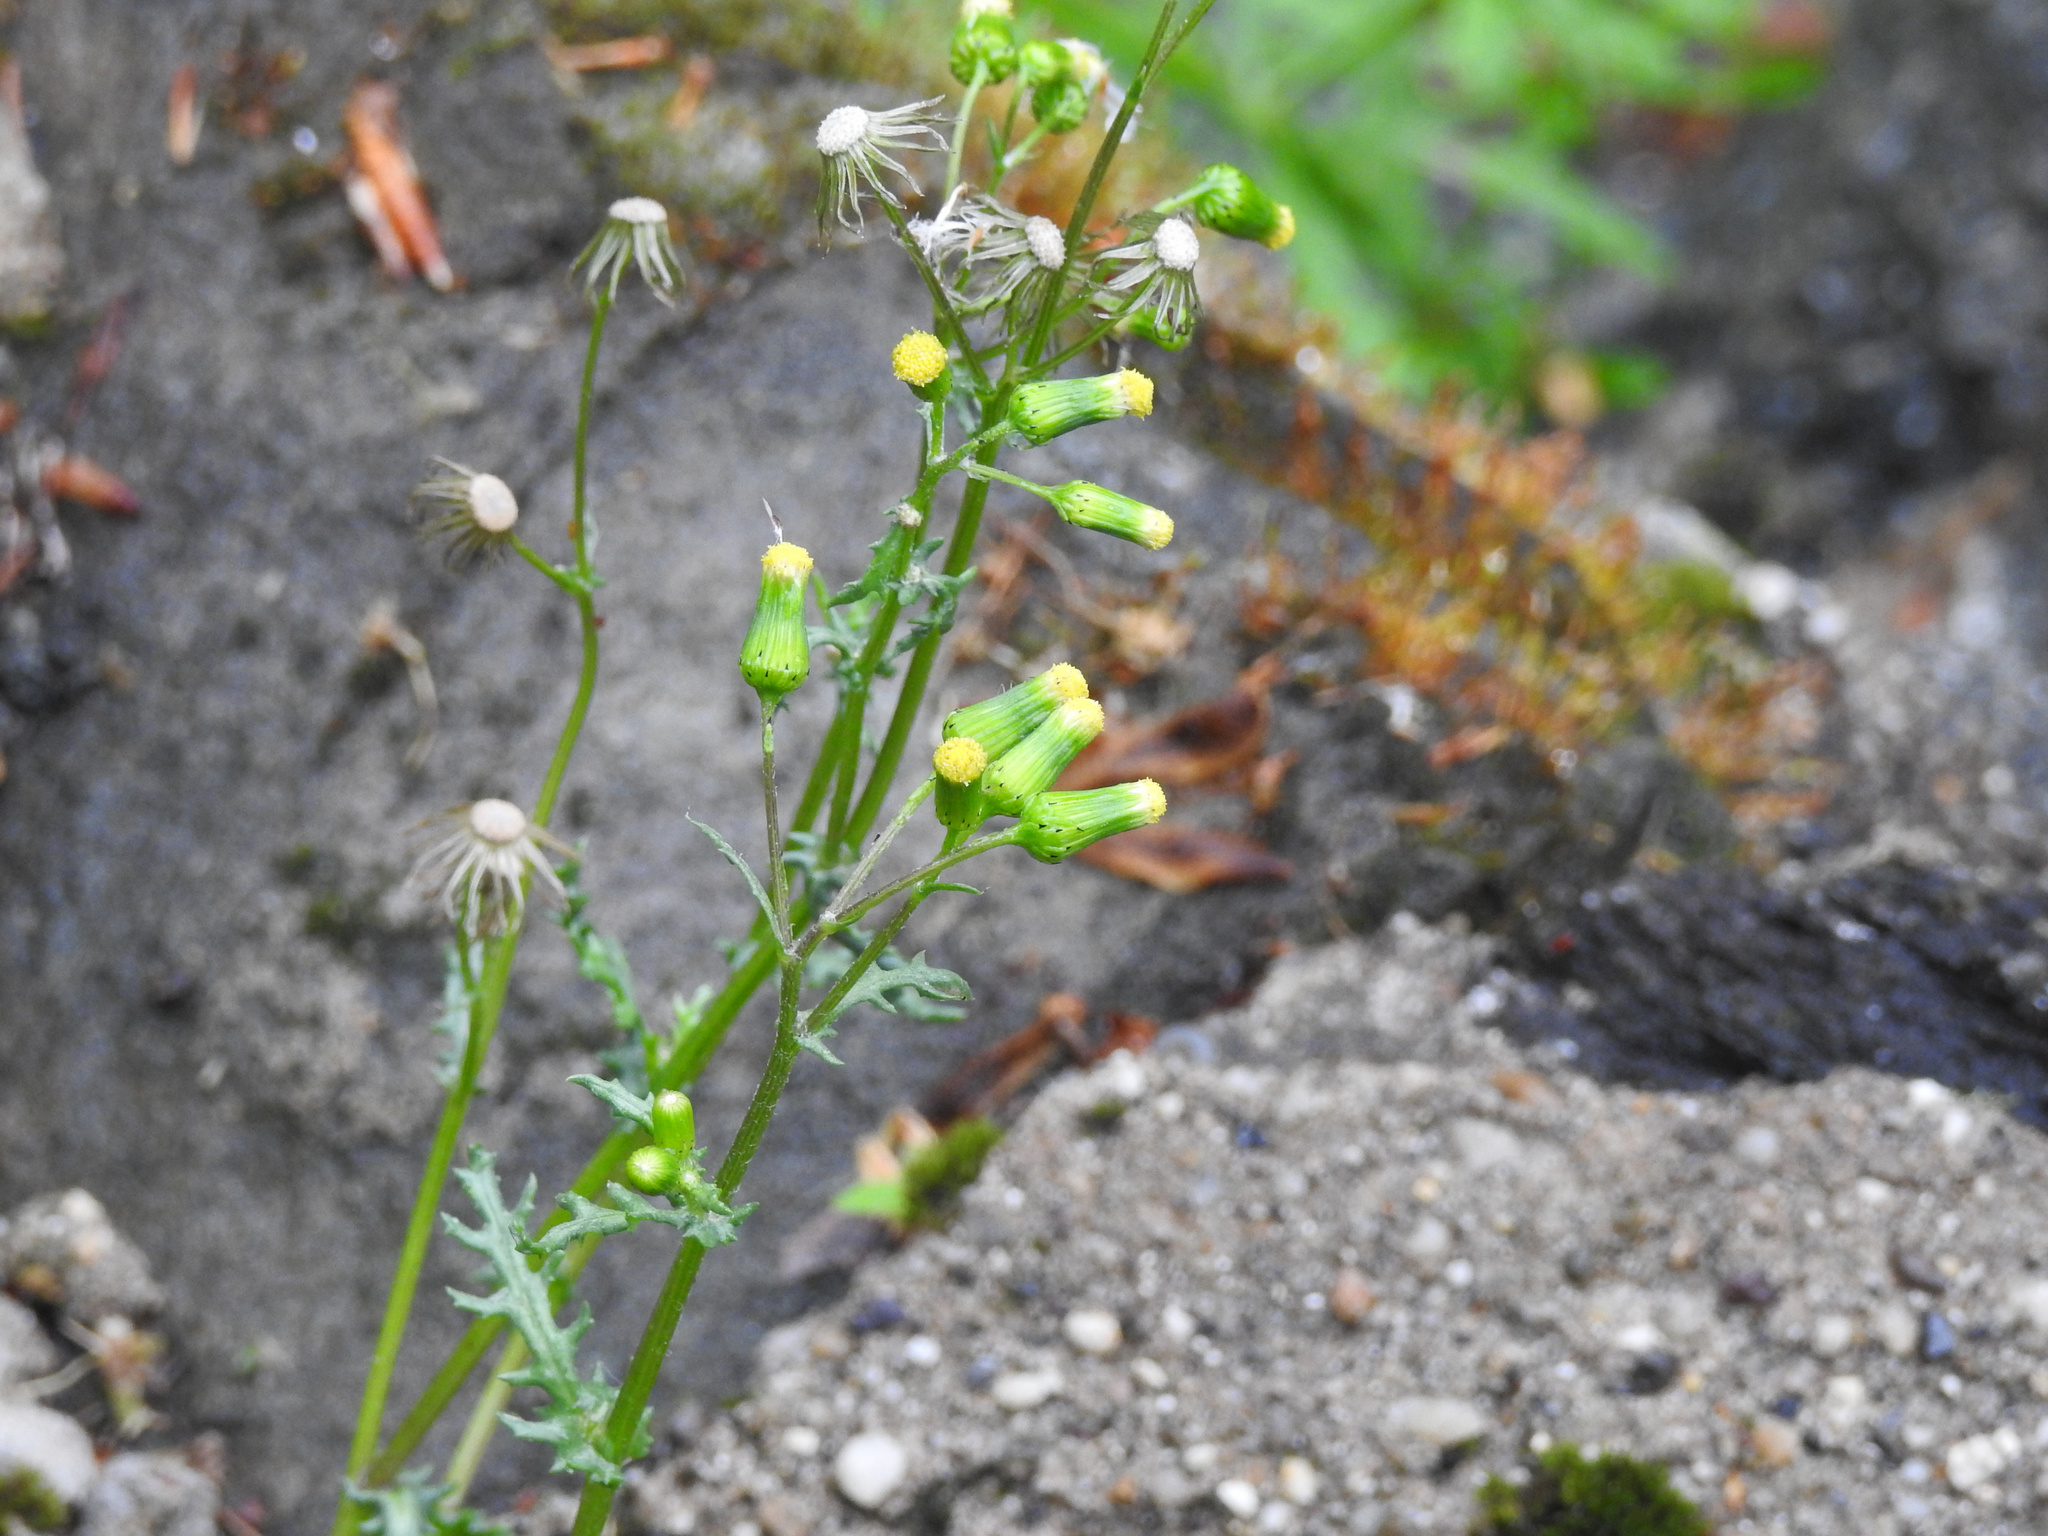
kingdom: Plantae
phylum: Tracheophyta
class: Magnoliopsida
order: Asterales
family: Asteraceae
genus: Senecio
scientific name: Senecio vulgaris
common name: Old-man-in-the-spring
